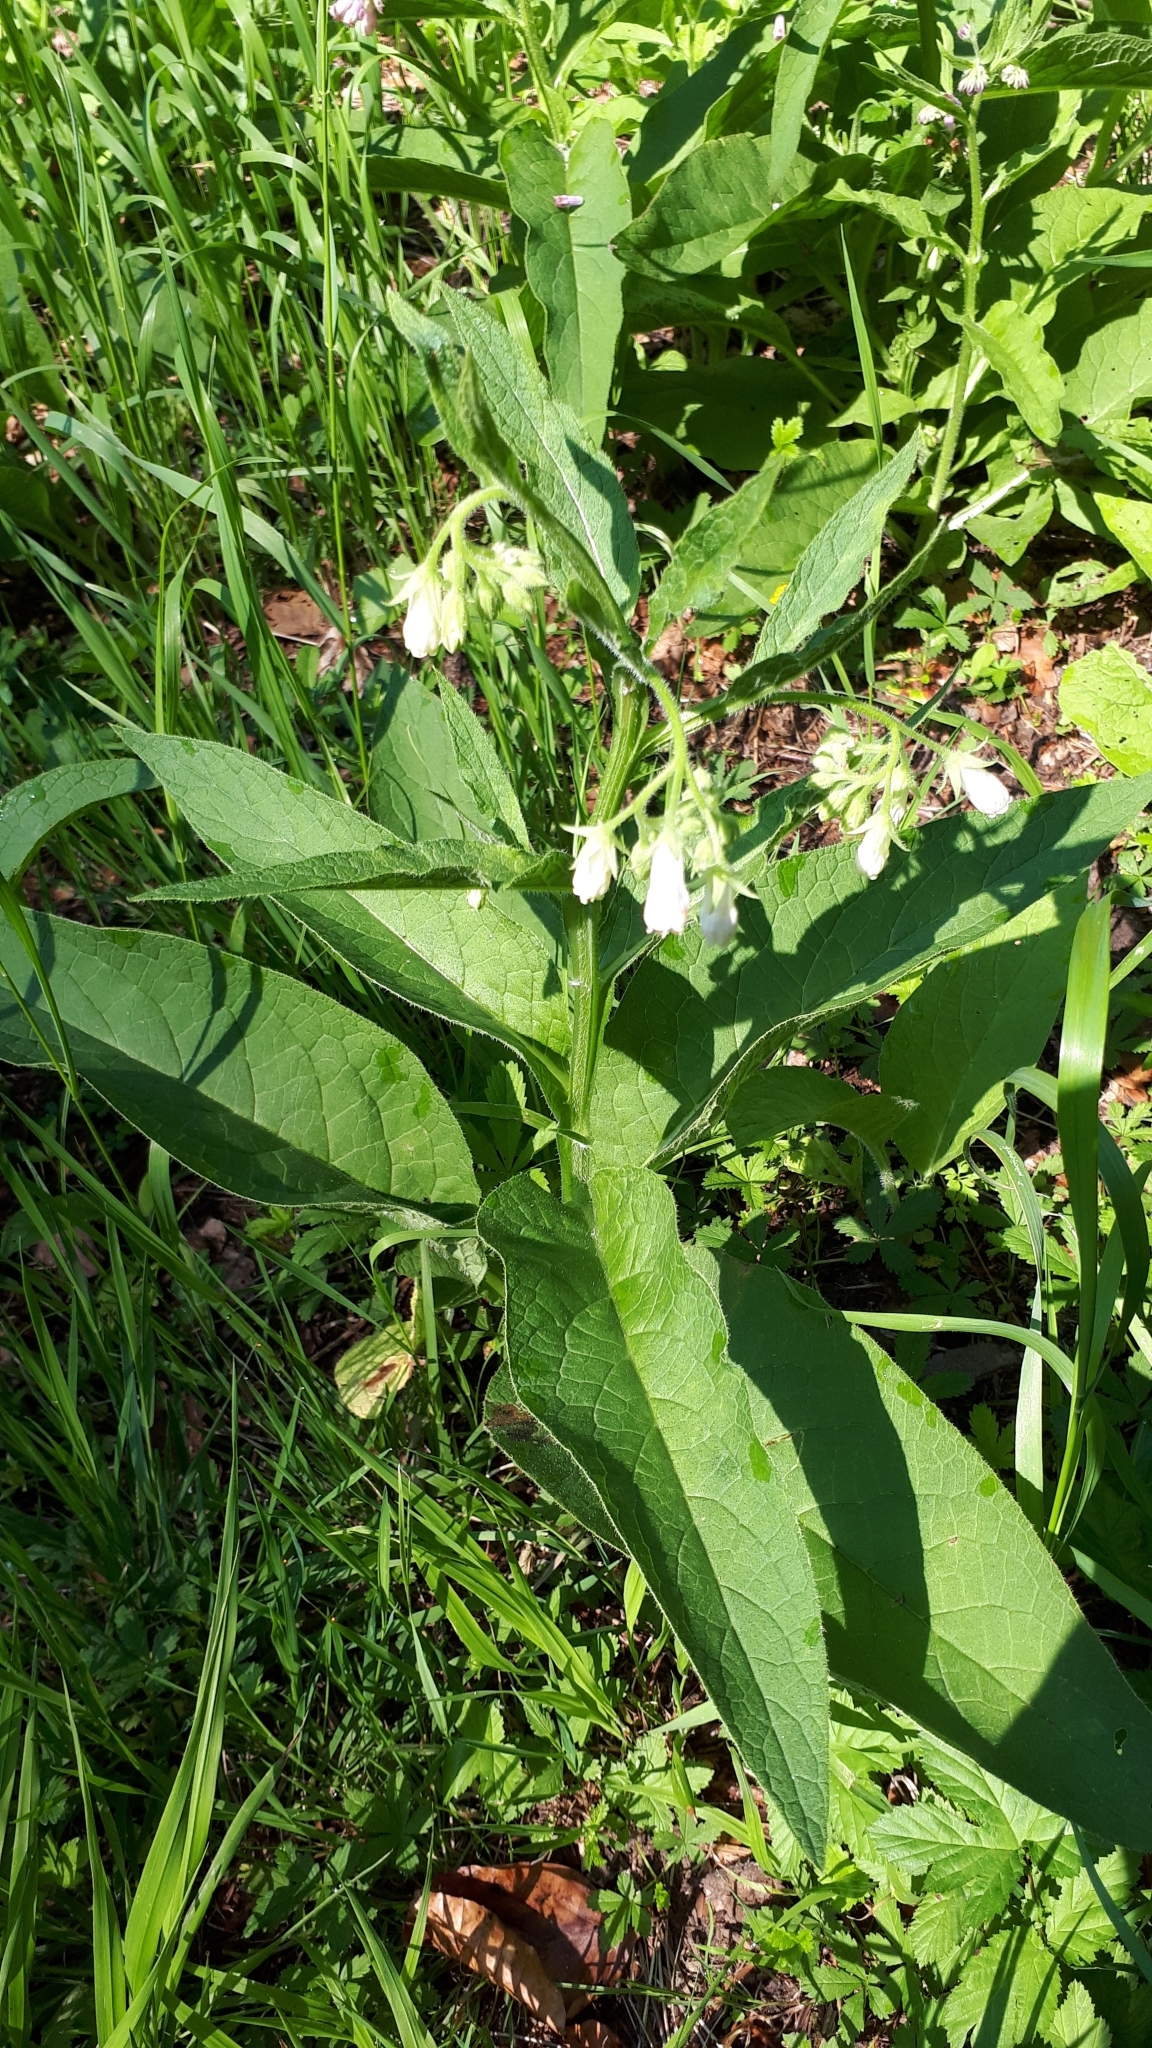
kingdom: Plantae
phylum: Tracheophyta
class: Magnoliopsida
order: Boraginales
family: Boraginaceae
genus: Symphytum
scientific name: Symphytum officinale
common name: Common comfrey
